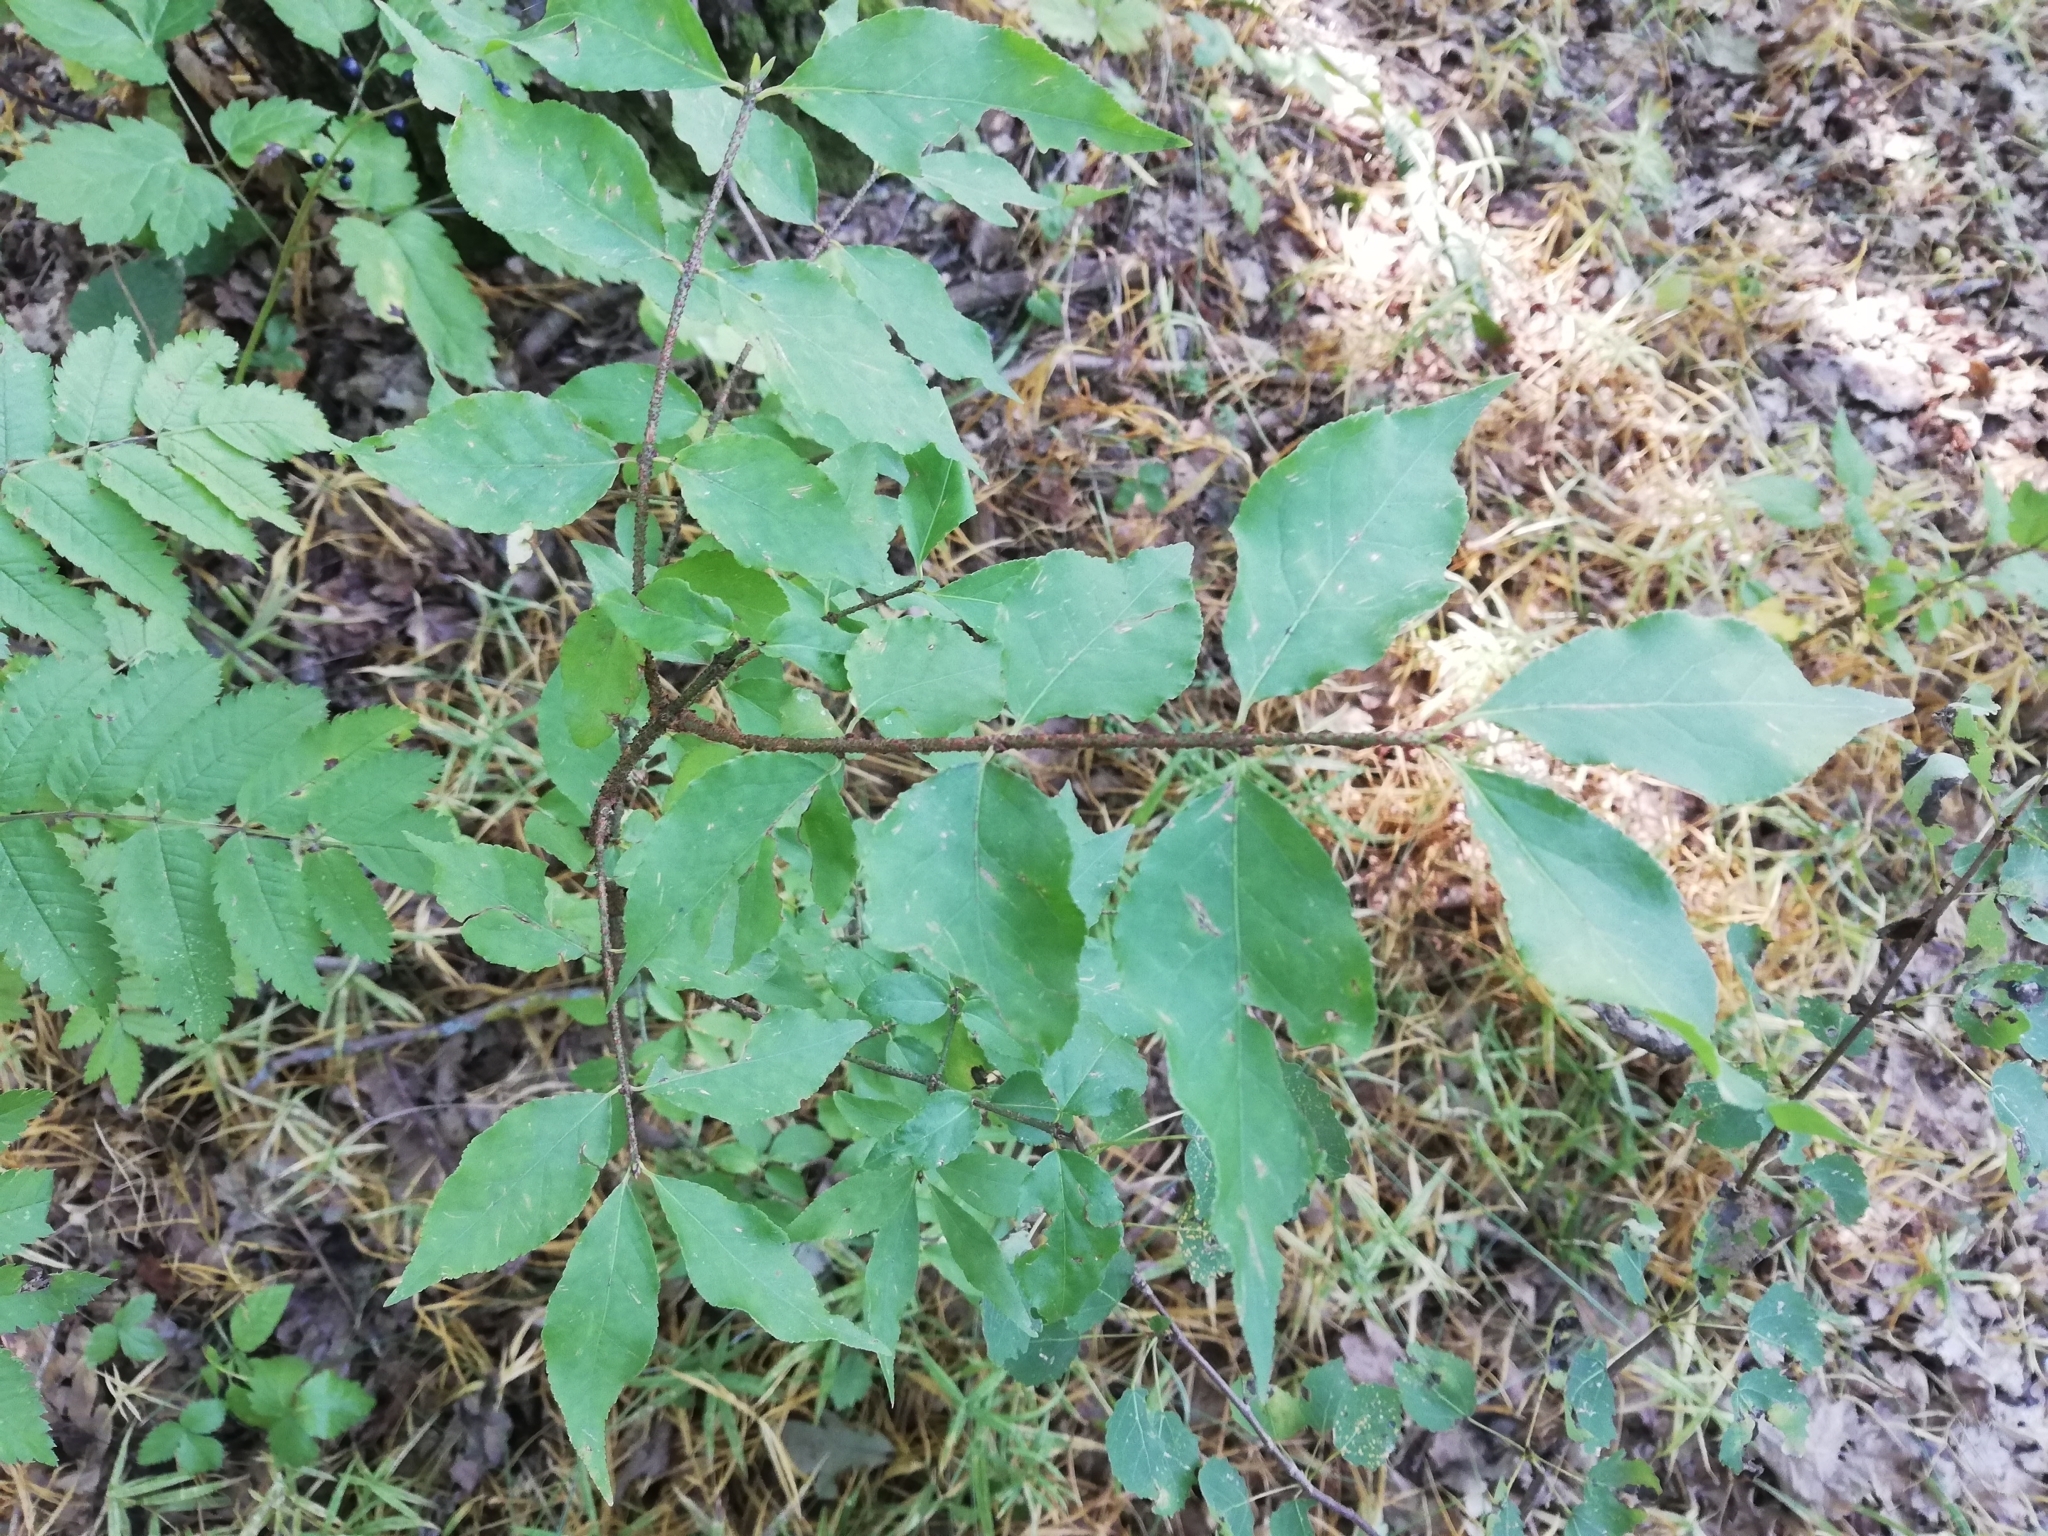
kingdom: Plantae
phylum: Tracheophyta
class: Magnoliopsida
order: Celastrales
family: Celastraceae
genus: Euonymus
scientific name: Euonymus verrucosus
